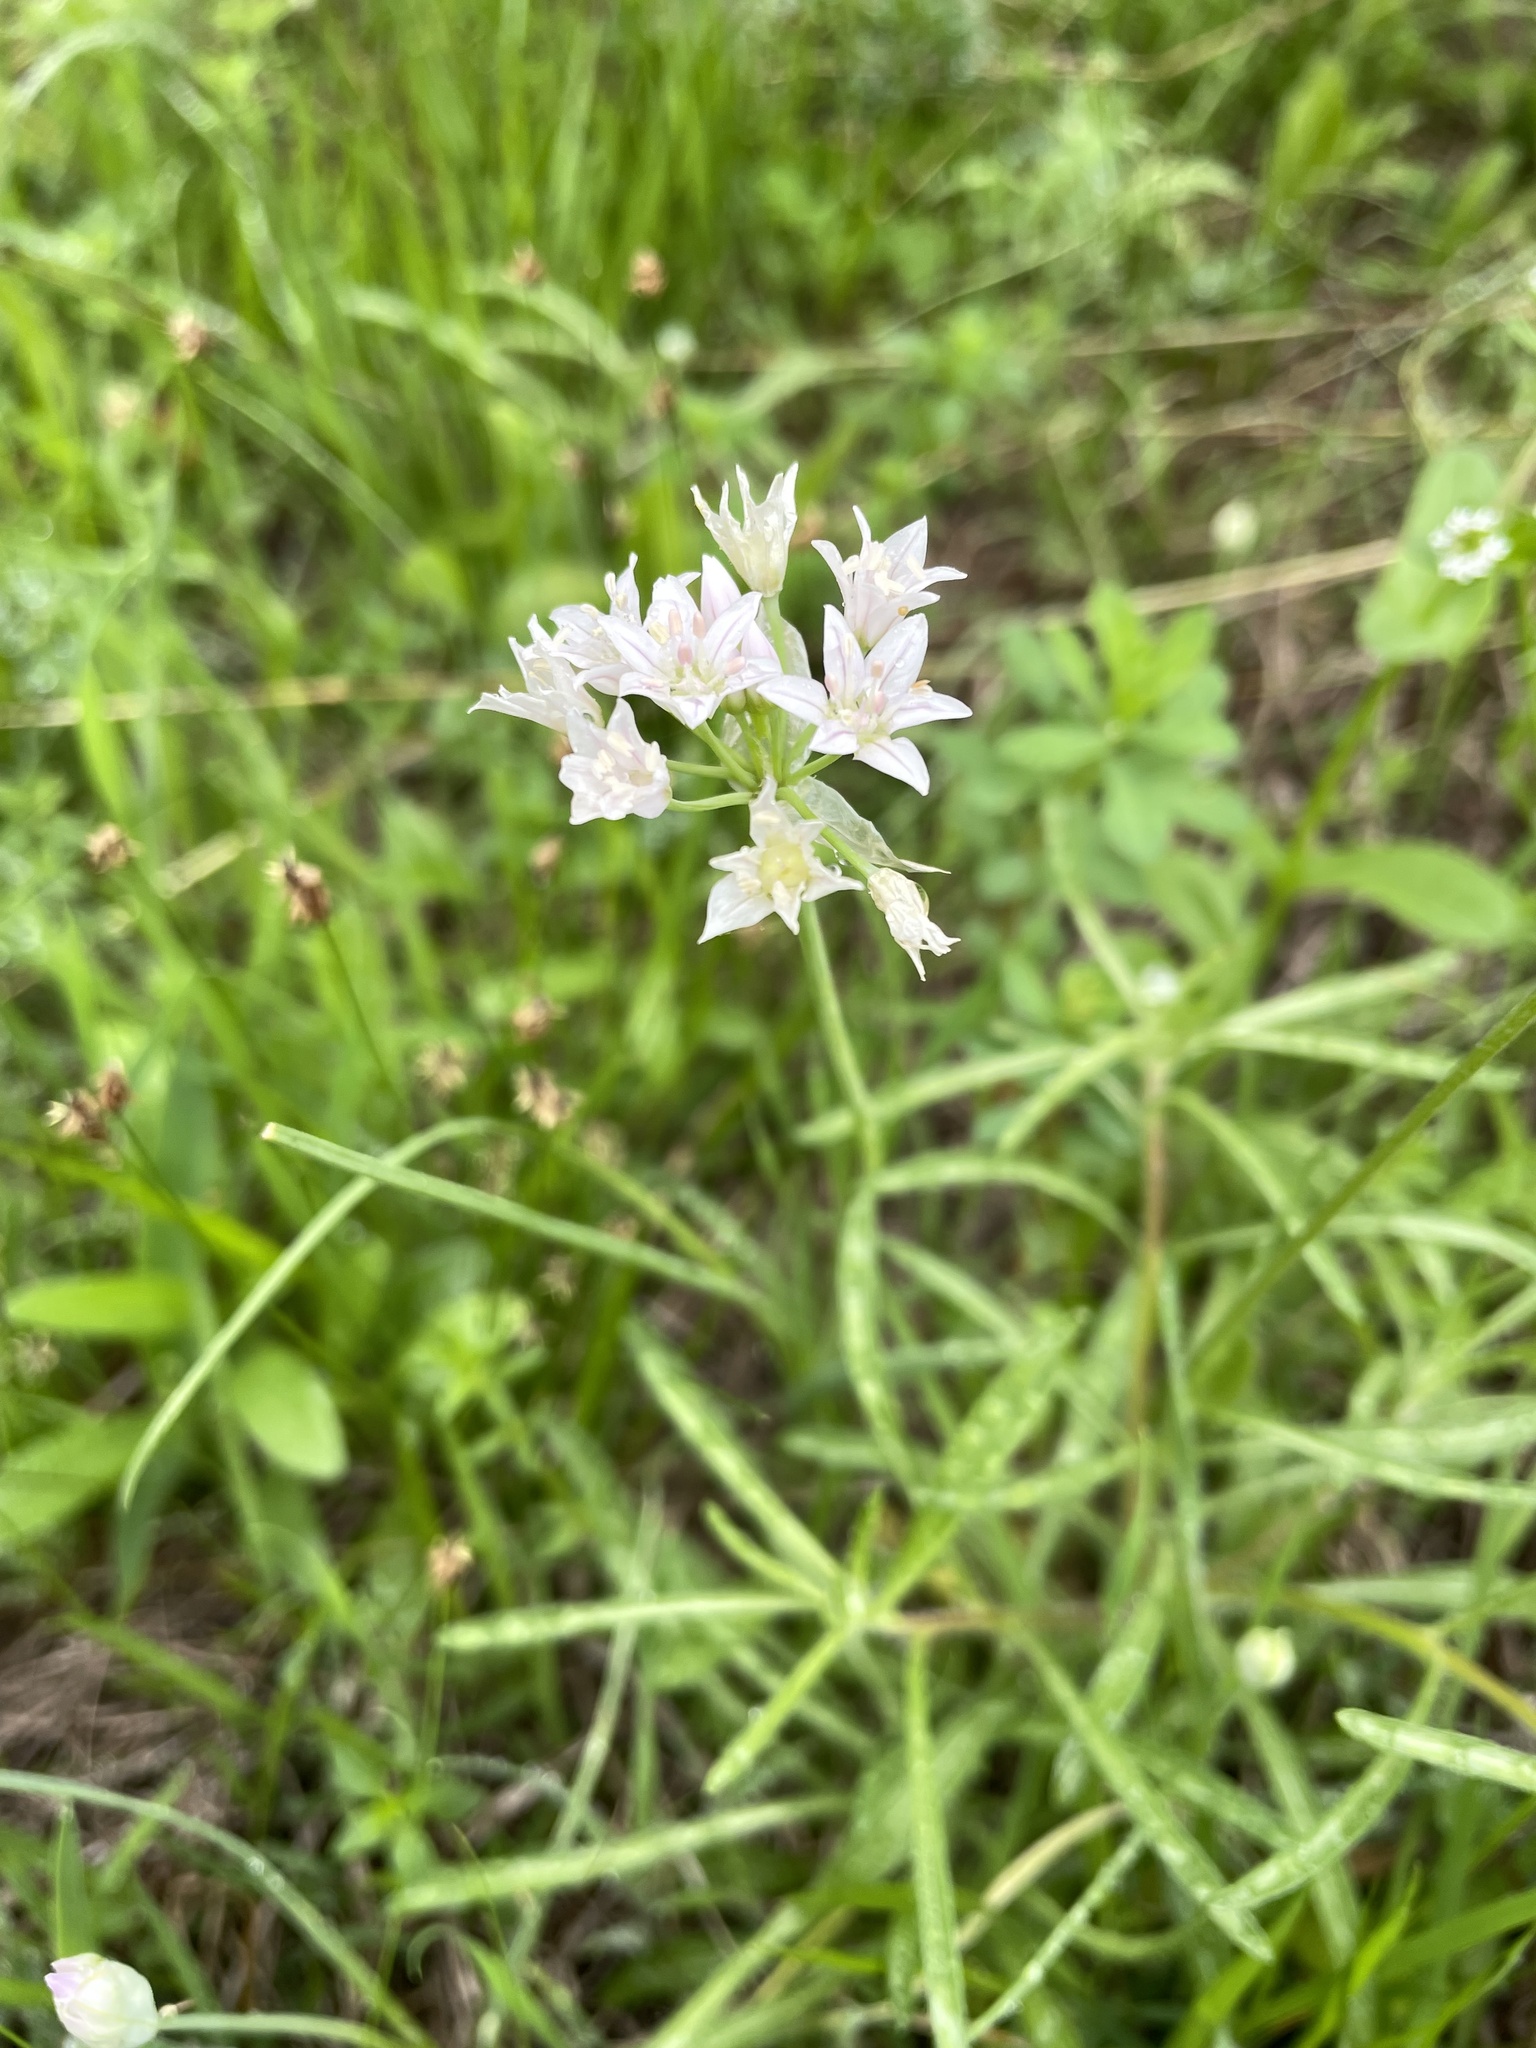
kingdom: Plantae
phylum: Tracheophyta
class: Liliopsida
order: Asparagales
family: Amaryllidaceae
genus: Allium
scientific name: Allium drummondii
